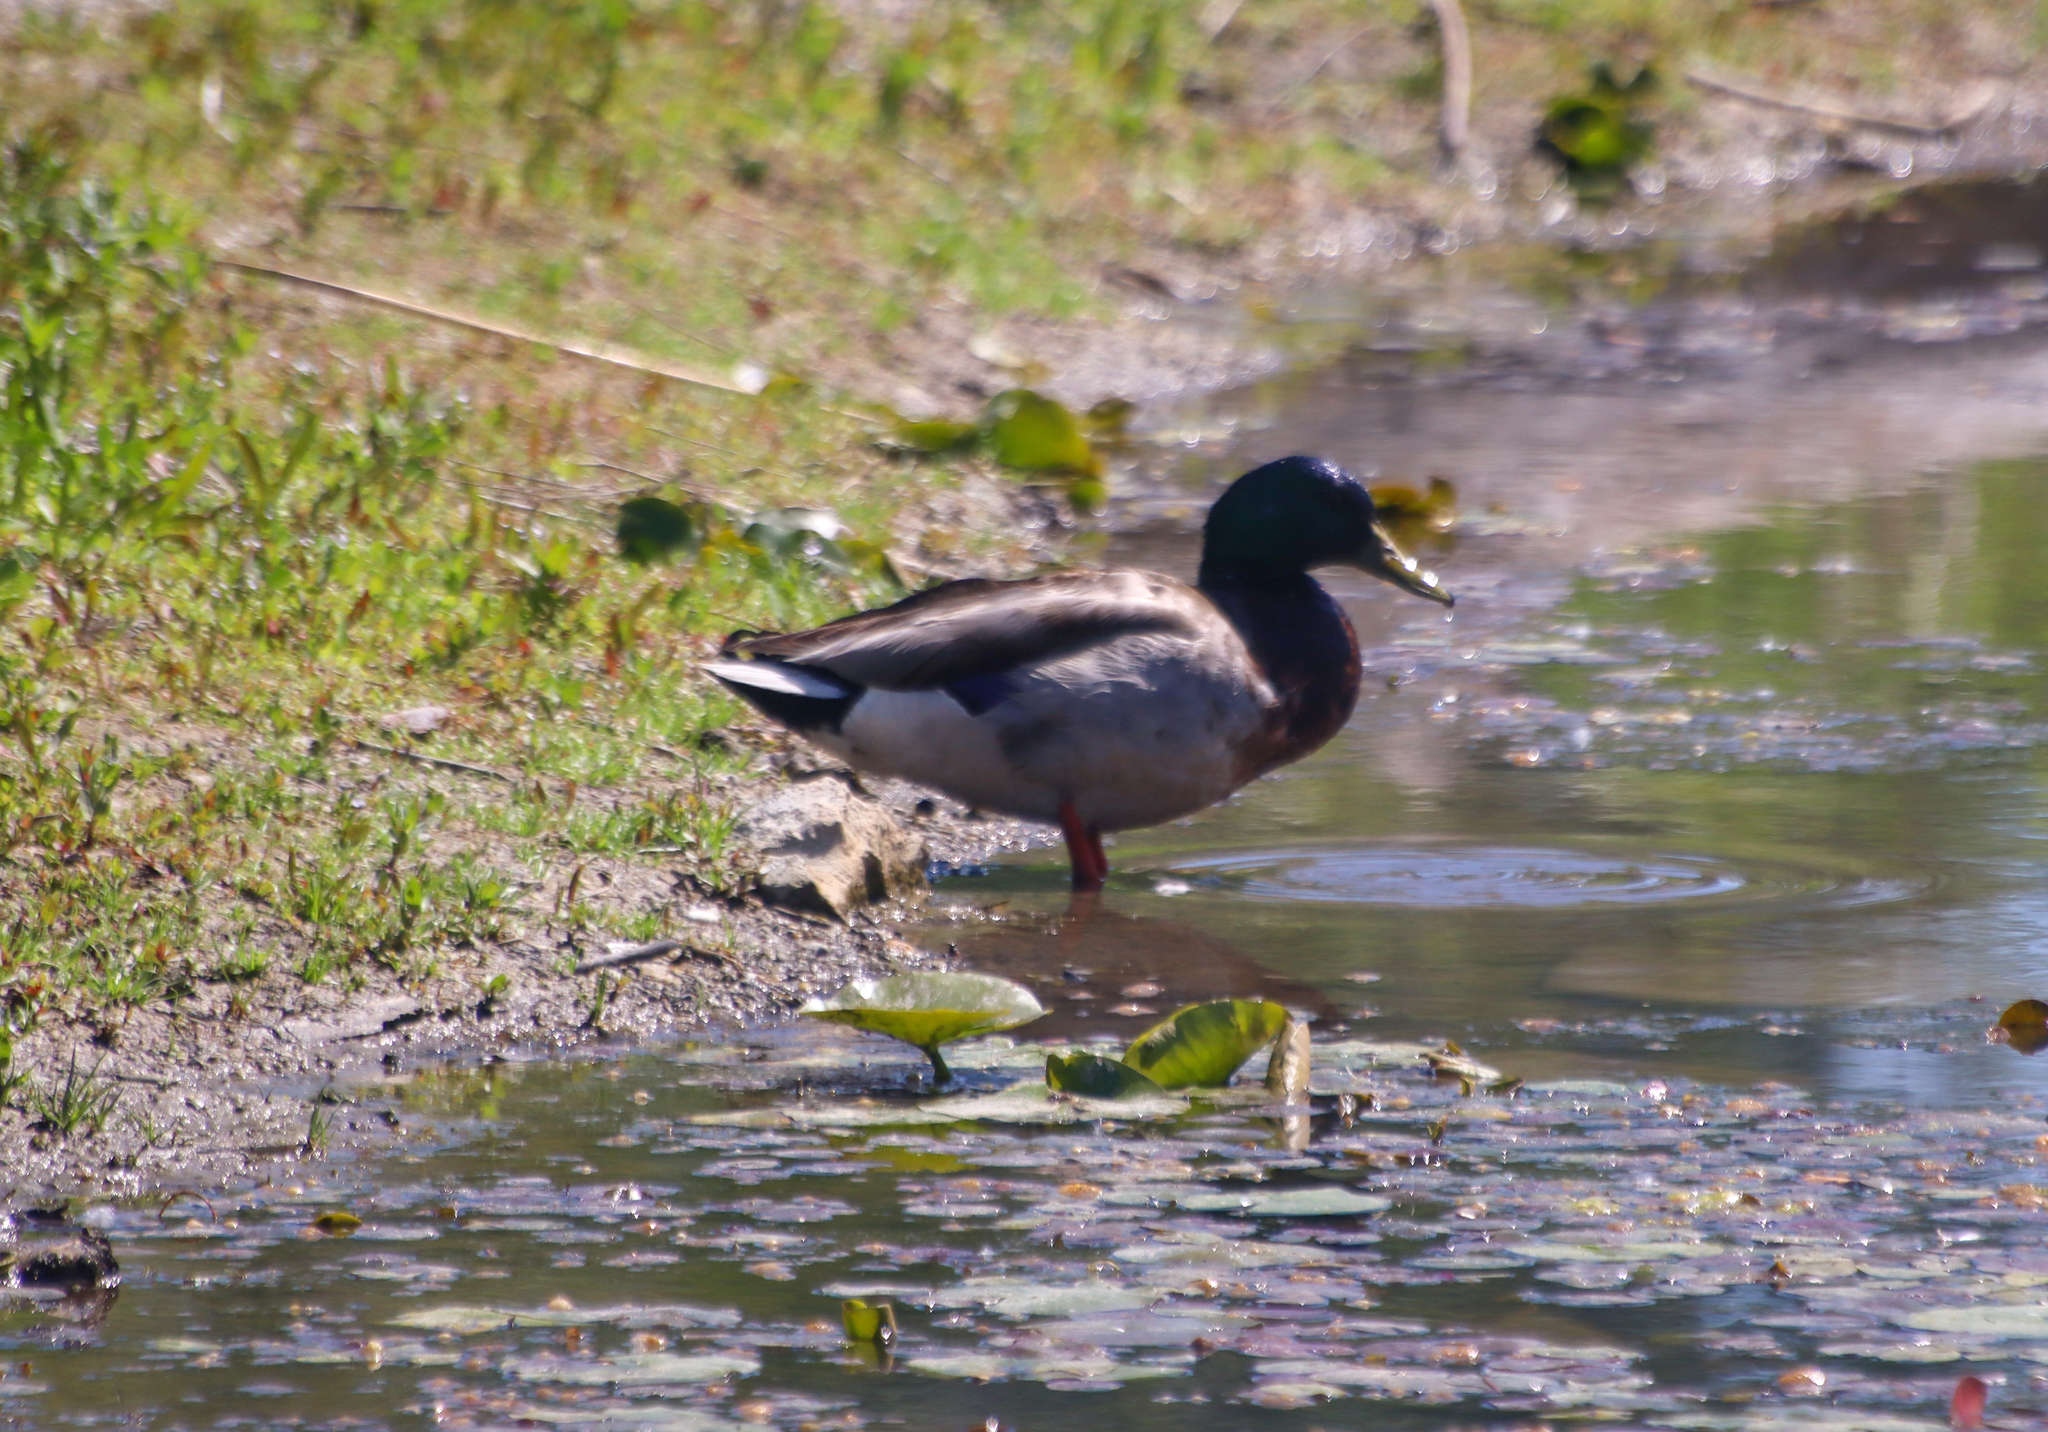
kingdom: Animalia
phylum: Chordata
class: Aves
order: Anseriformes
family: Anatidae
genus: Anas
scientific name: Anas platyrhynchos
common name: Mallard
